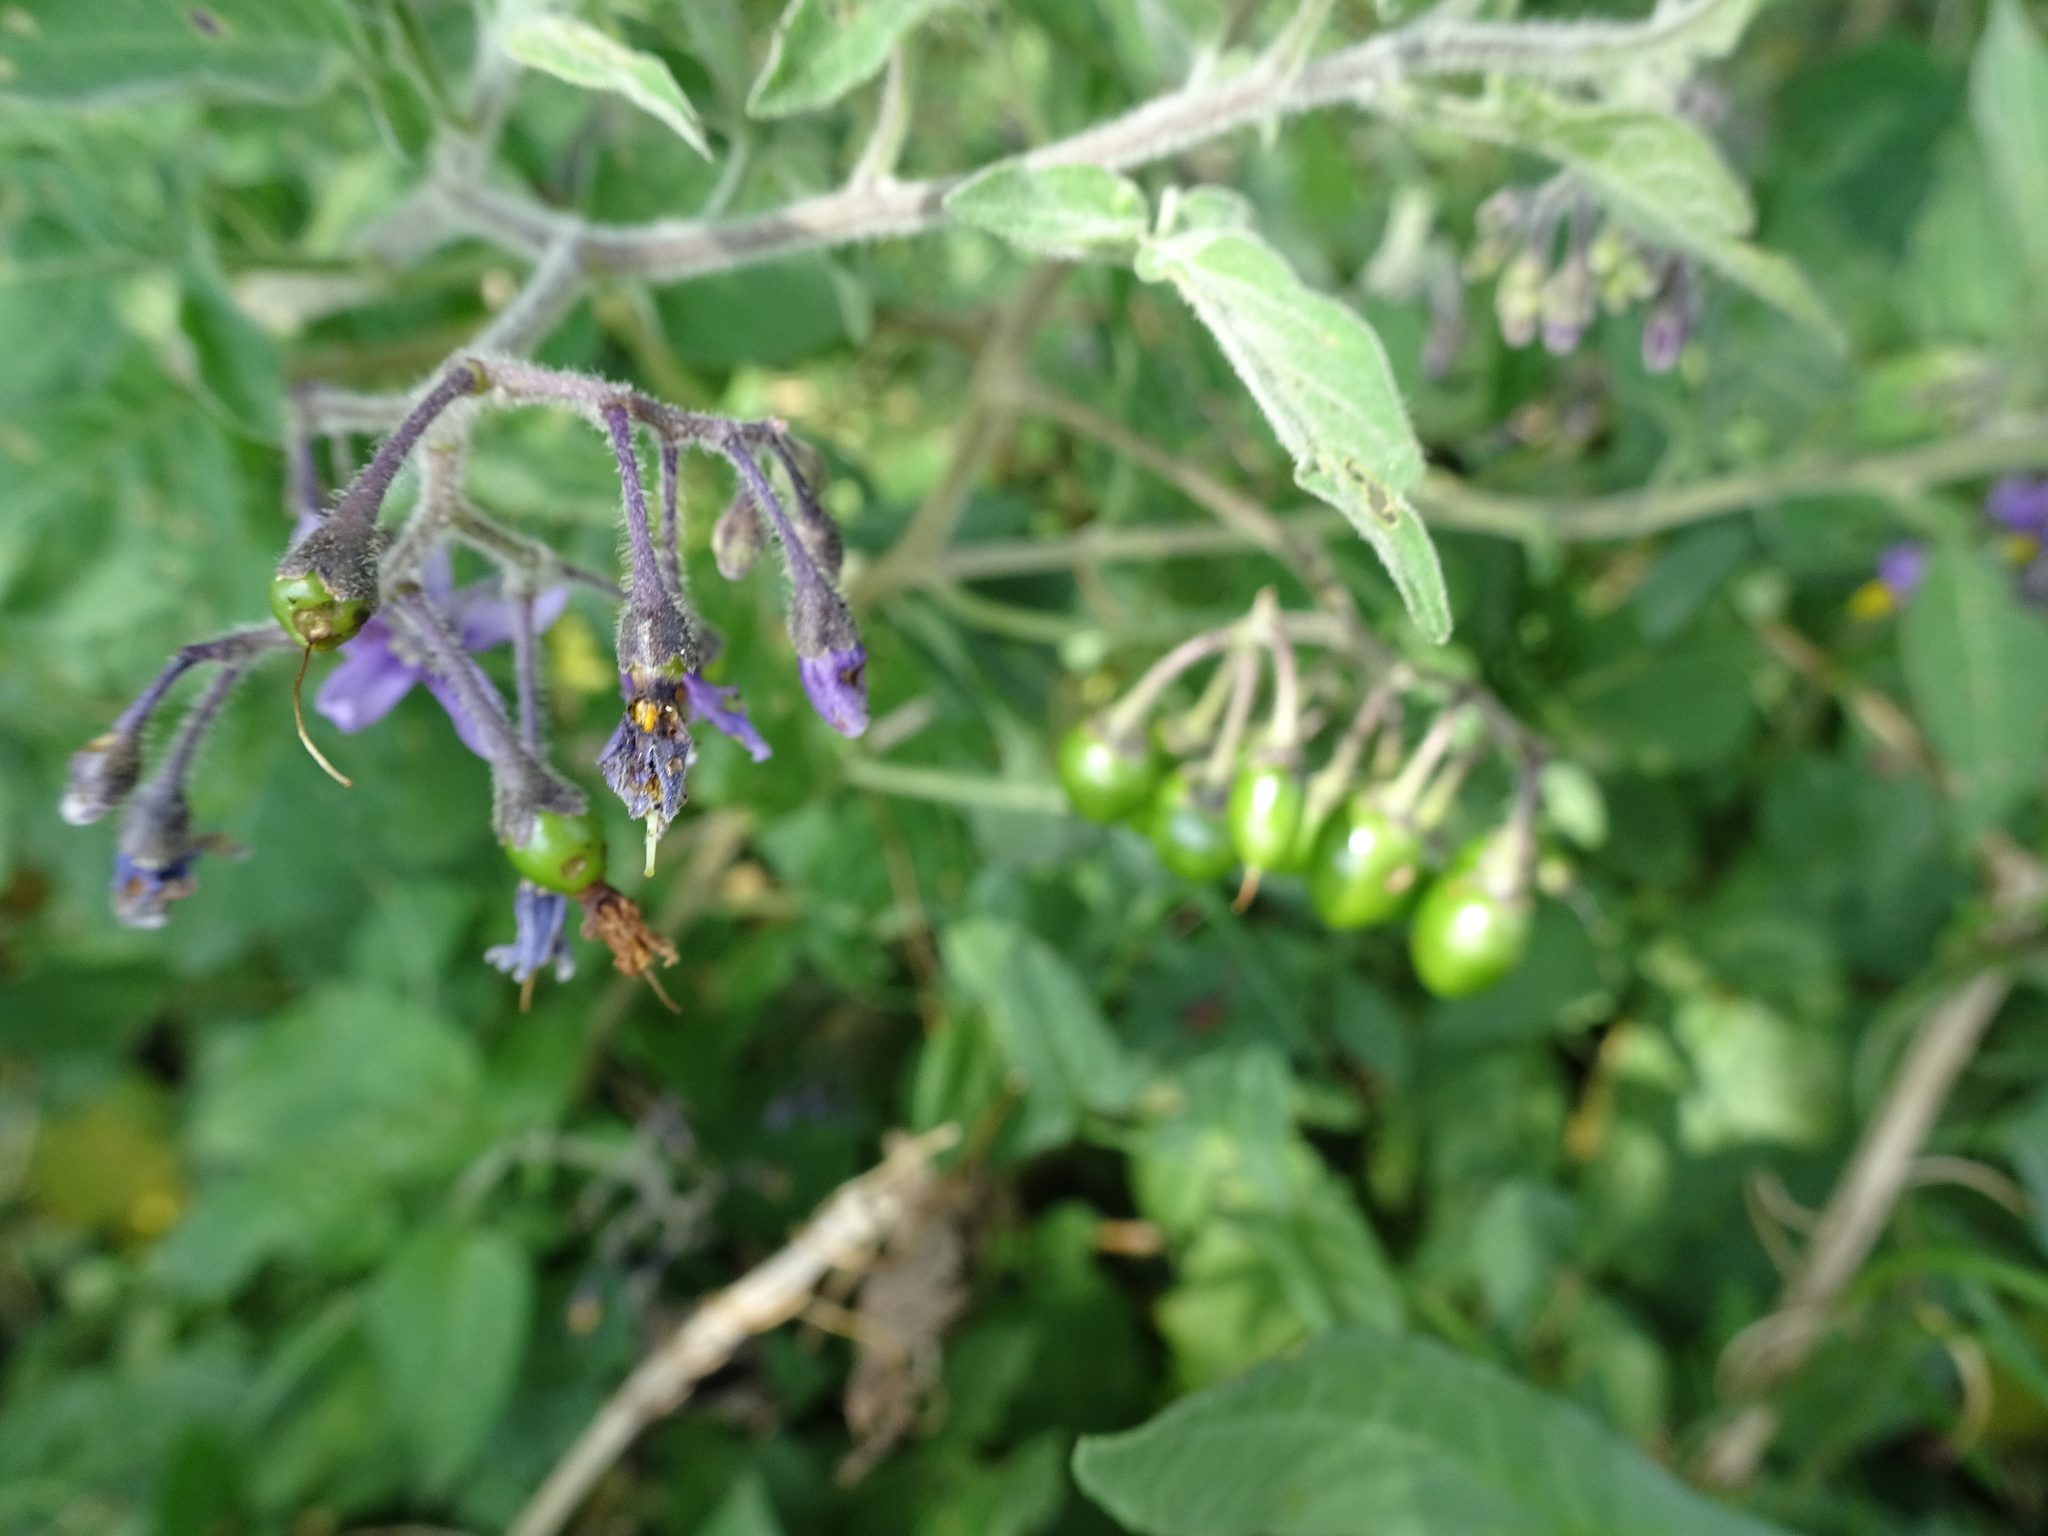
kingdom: Plantae
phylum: Tracheophyta
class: Magnoliopsida
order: Solanales
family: Solanaceae
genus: Solanum
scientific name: Solanum dulcamara
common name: Climbing nightshade
